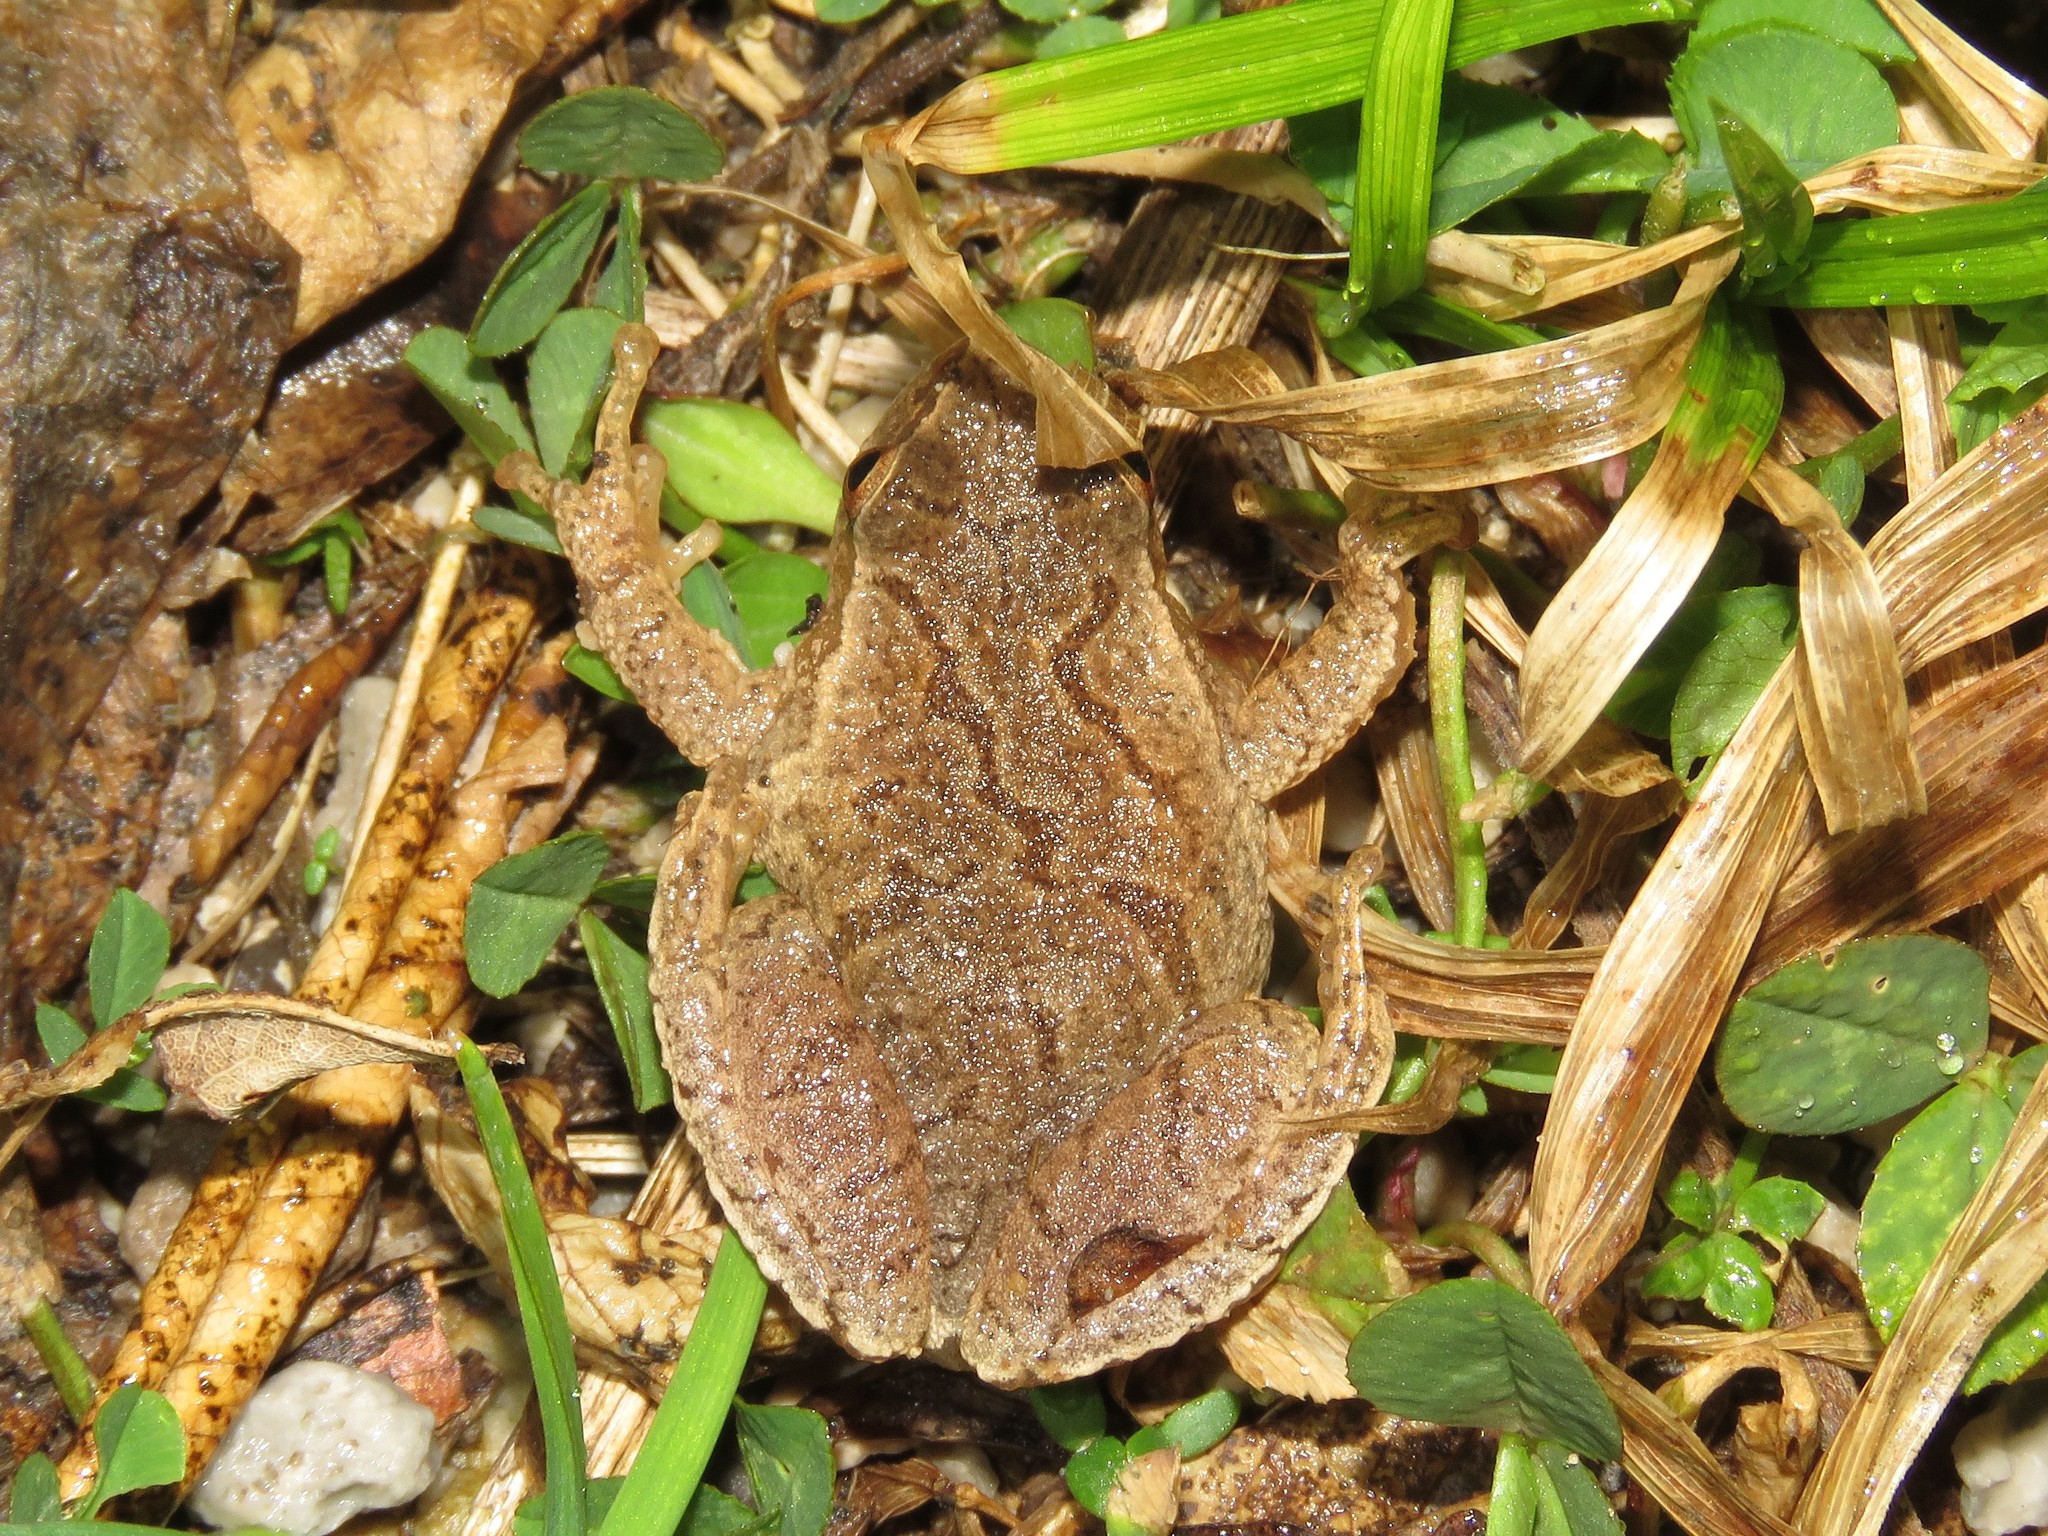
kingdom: Animalia
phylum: Chordata
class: Amphibia
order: Anura
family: Hylidae
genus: Pseudacris
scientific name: Pseudacris crucifer
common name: Spring peeper
